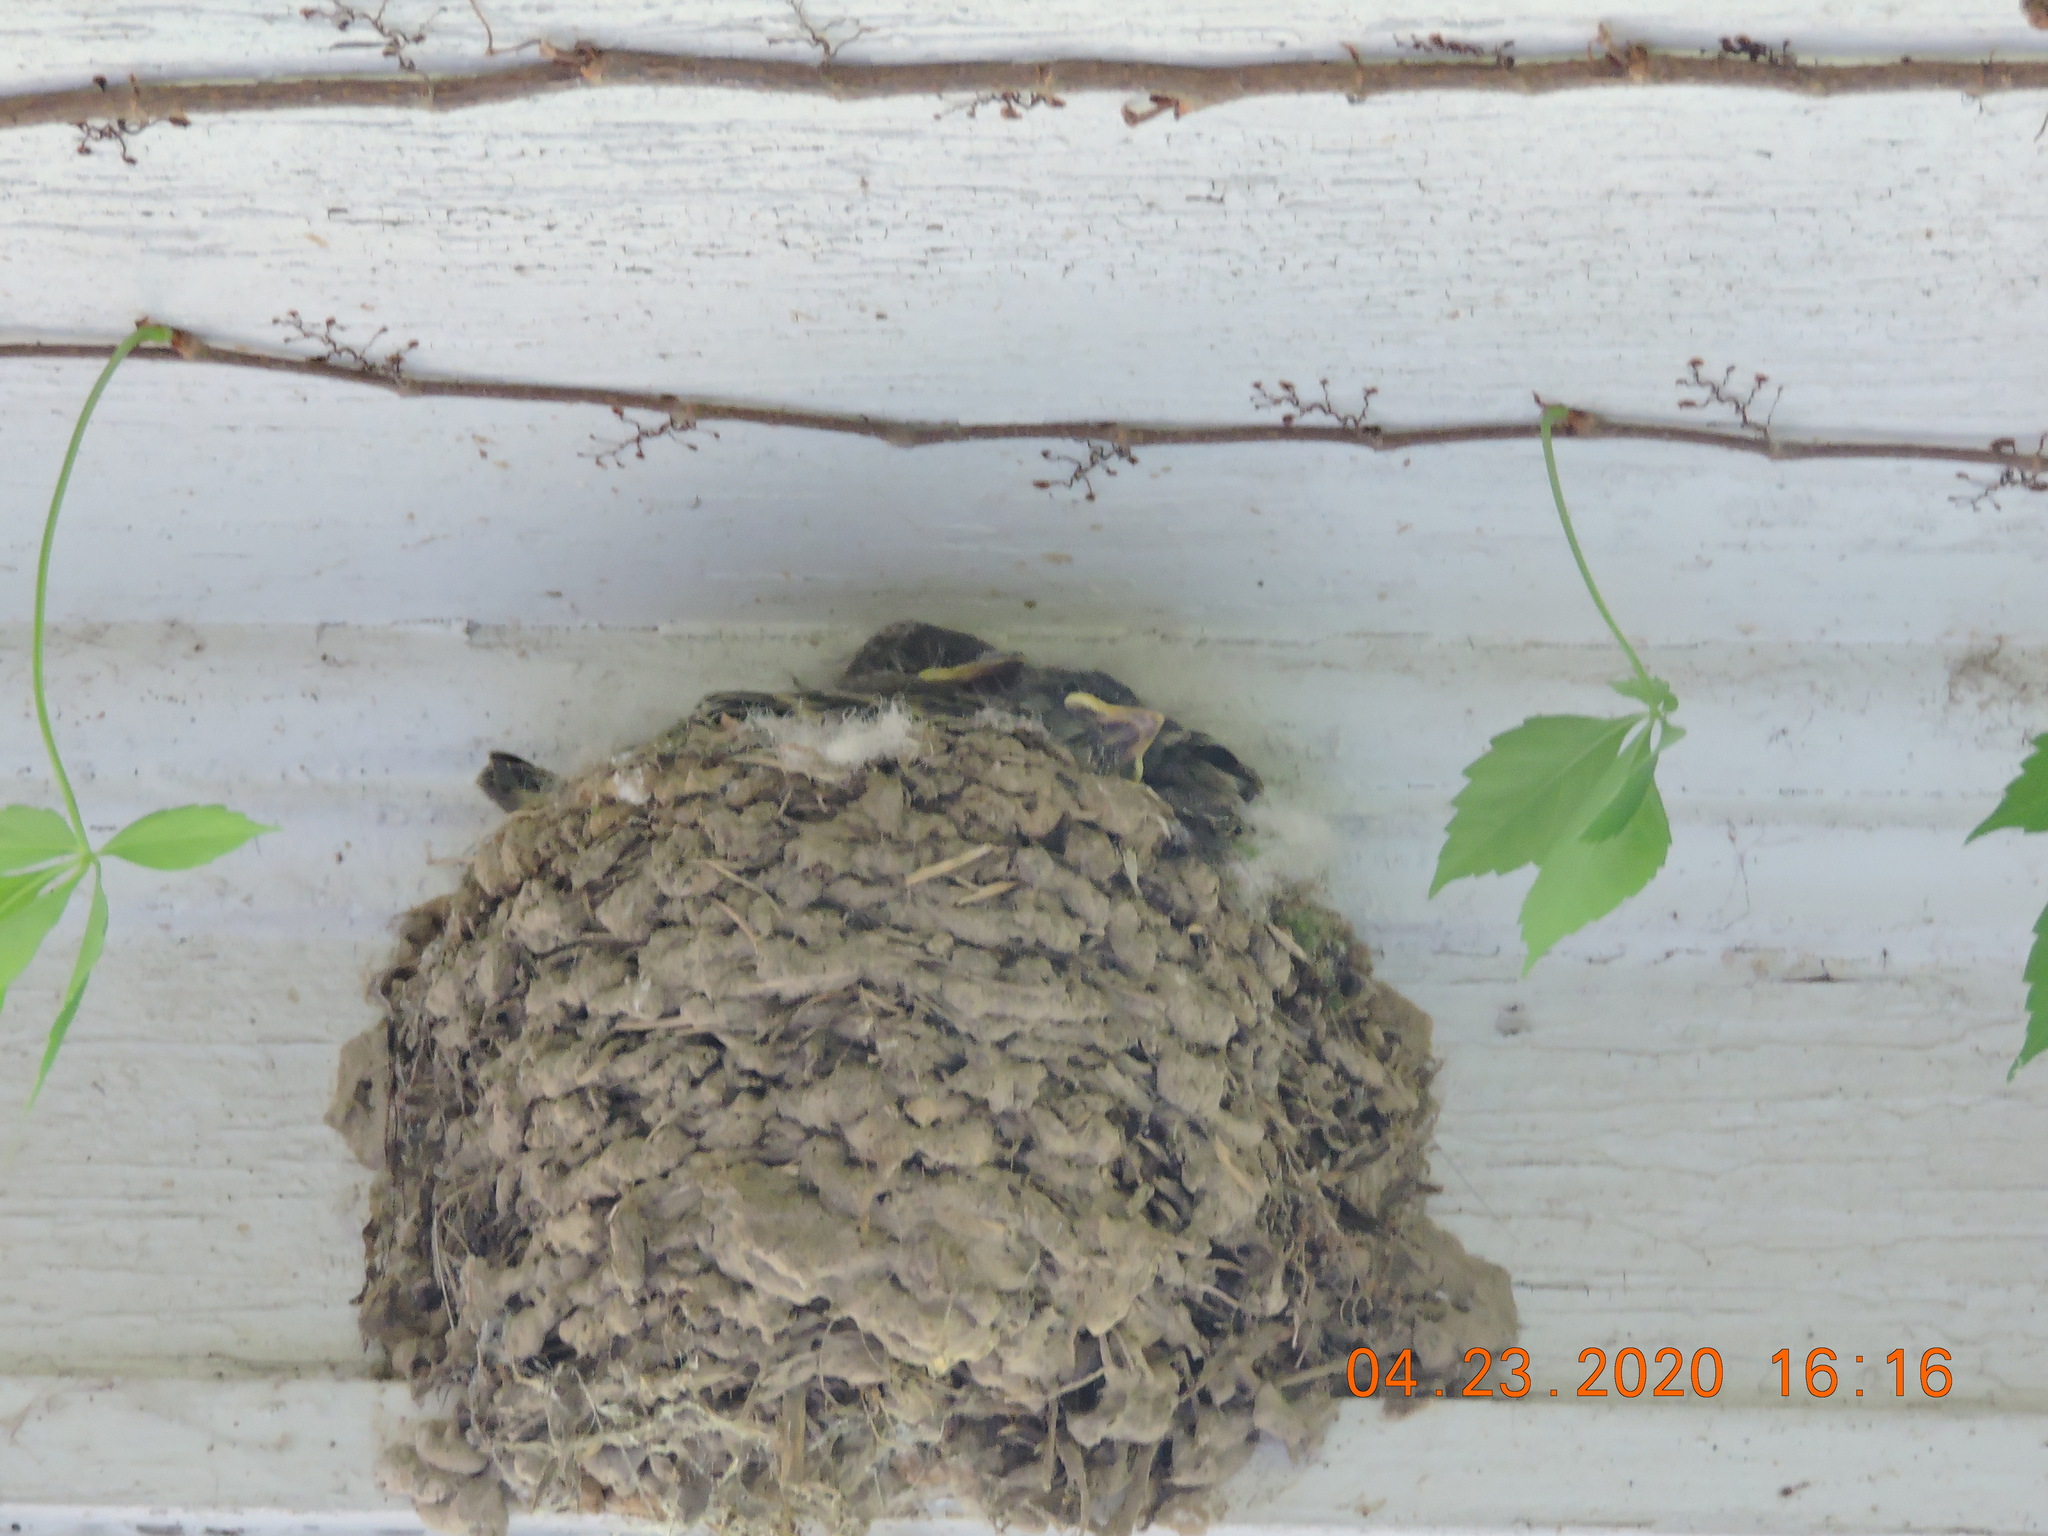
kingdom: Animalia
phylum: Chordata
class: Aves
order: Passeriformes
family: Tyrannidae
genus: Sayornis
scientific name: Sayornis phoebe
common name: Eastern phoebe
